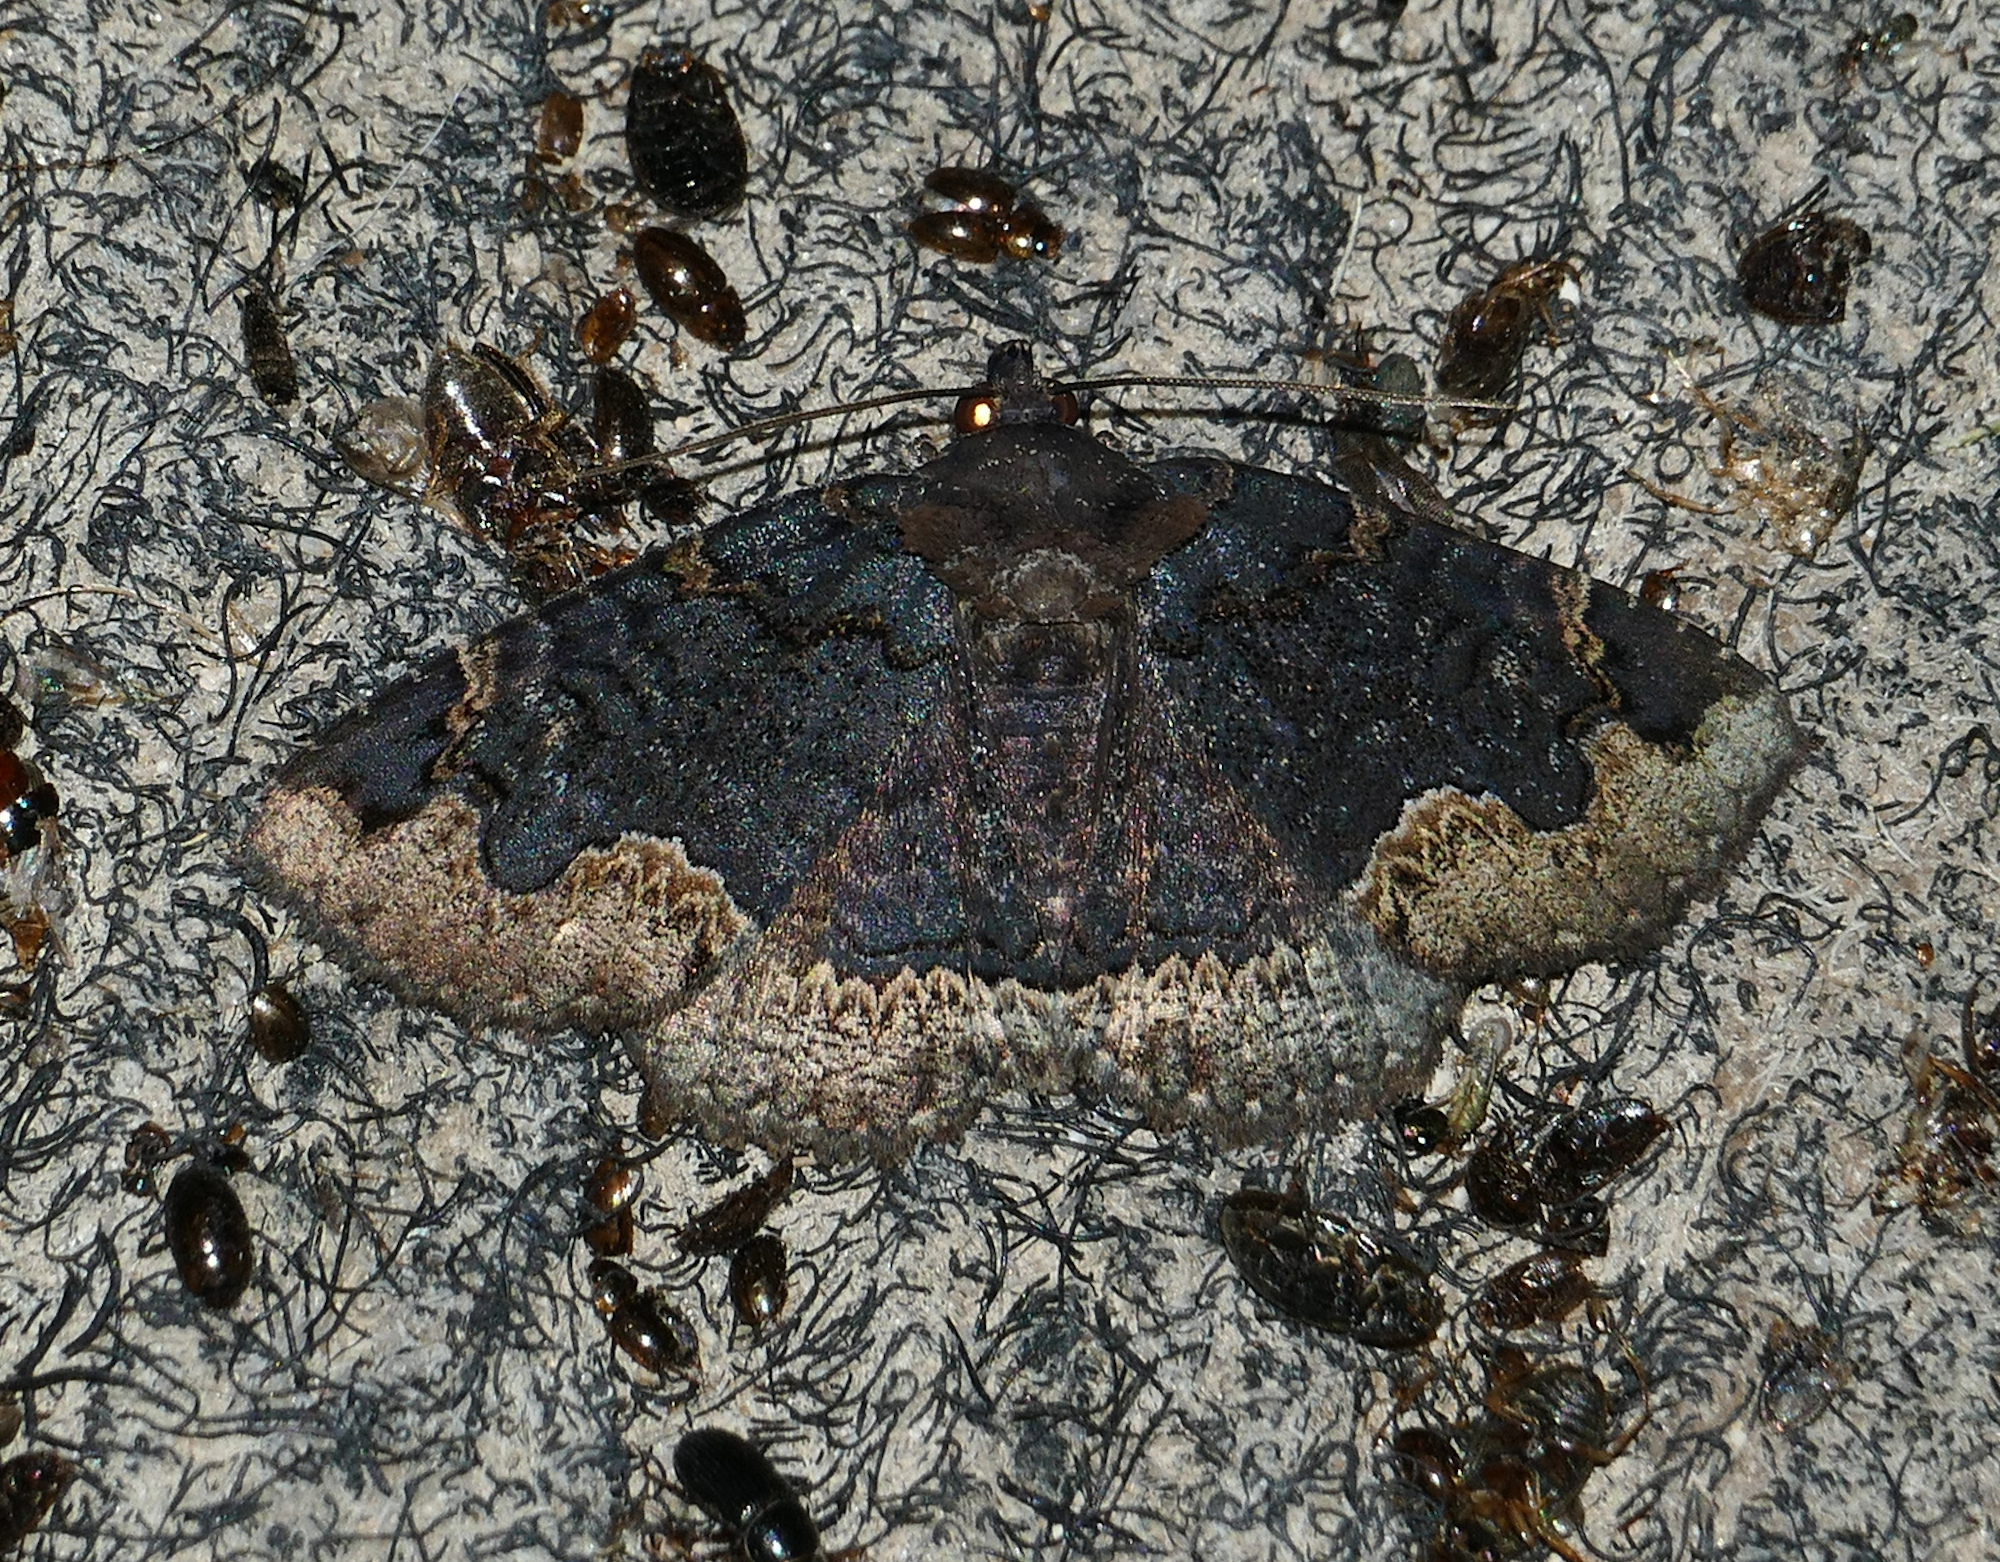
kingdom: Animalia
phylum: Arthropoda
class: Insecta
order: Lepidoptera
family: Erebidae
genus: Zale
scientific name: Zale horrida
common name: Horrid zale moth
